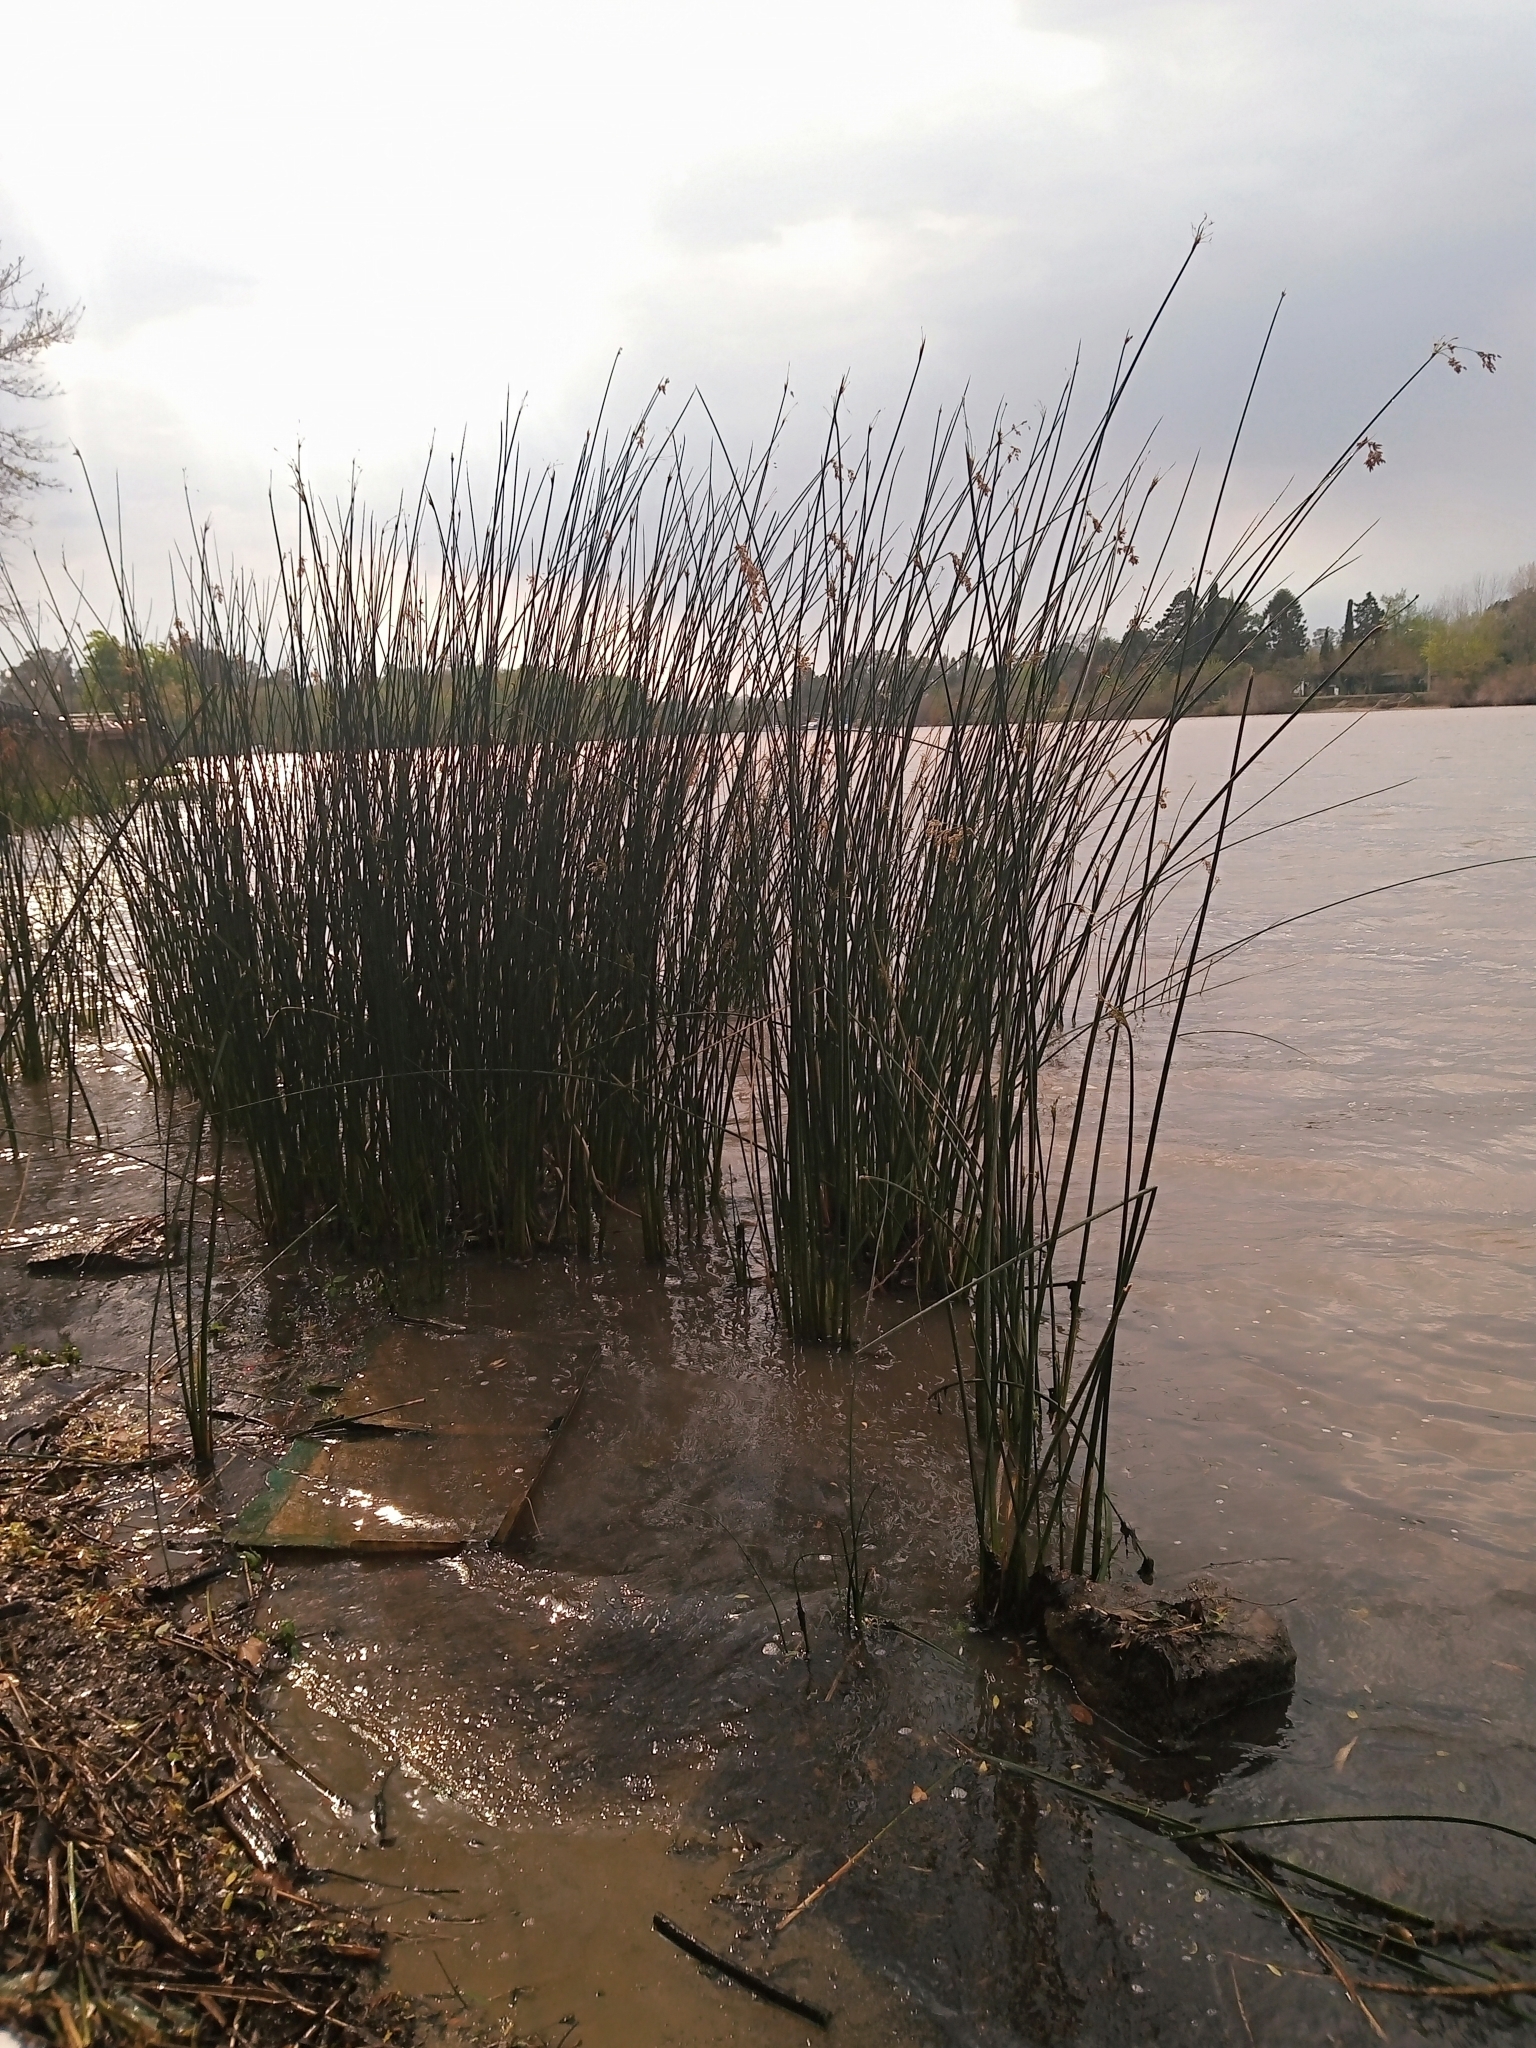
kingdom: Plantae
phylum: Tracheophyta
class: Liliopsida
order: Poales
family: Cyperaceae
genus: Schoenoplectus
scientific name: Schoenoplectus californicus
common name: California bulrush
